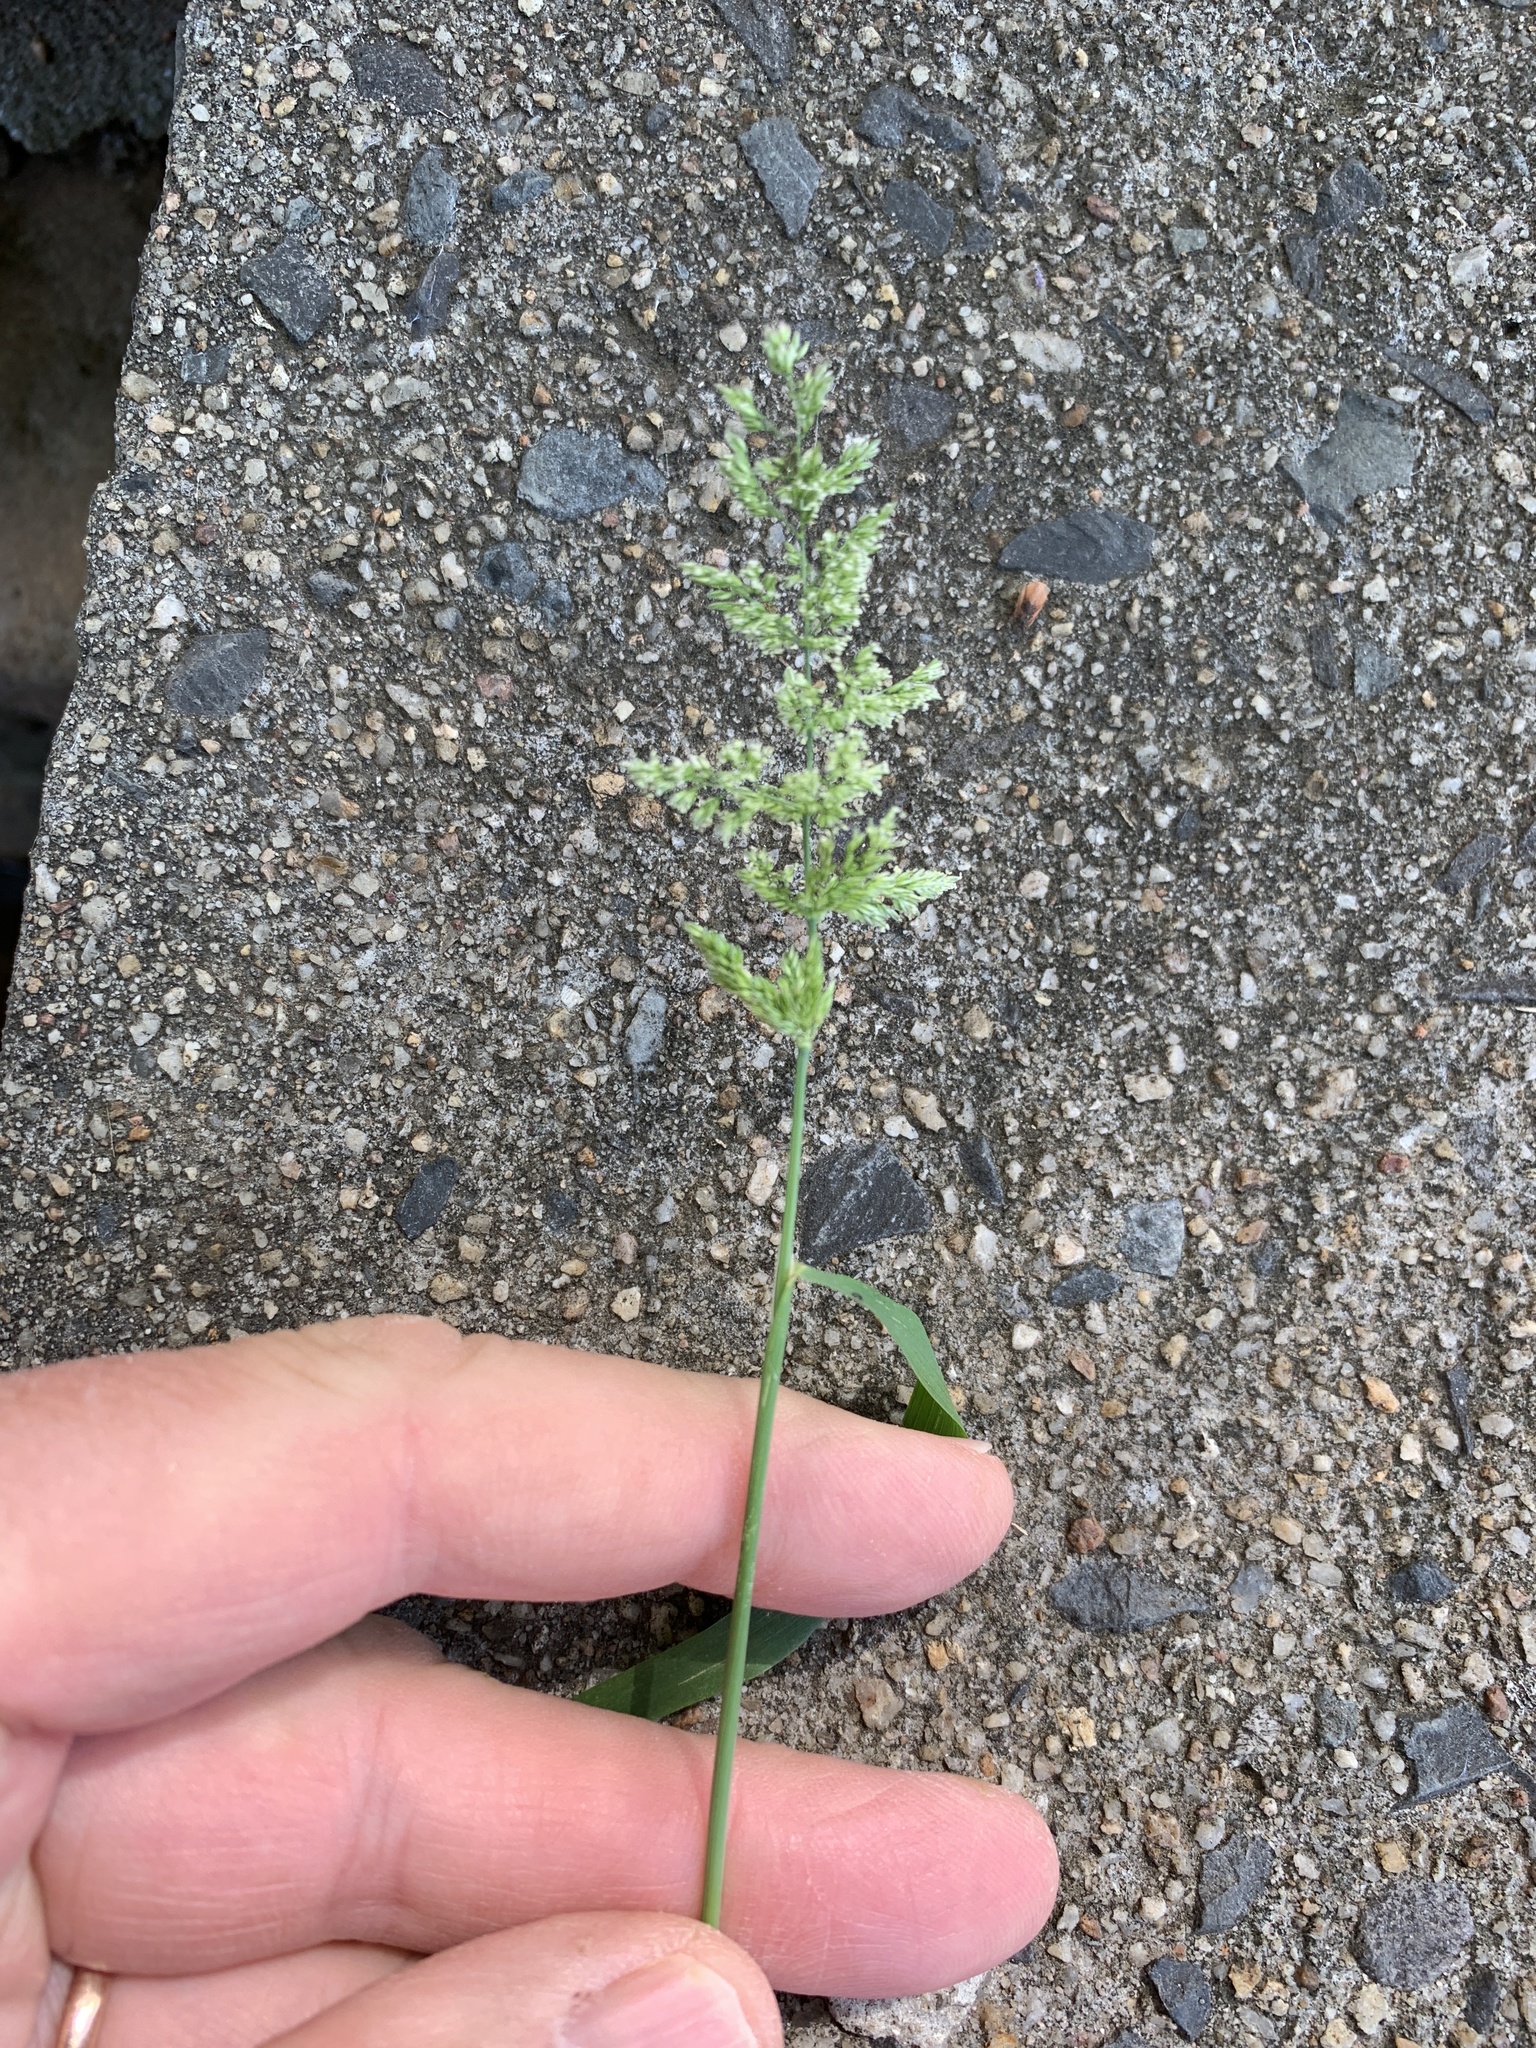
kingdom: Plantae
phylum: Tracheophyta
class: Liliopsida
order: Poales
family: Poaceae
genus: Polypogon
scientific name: Polypogon viridis
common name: Water bent
